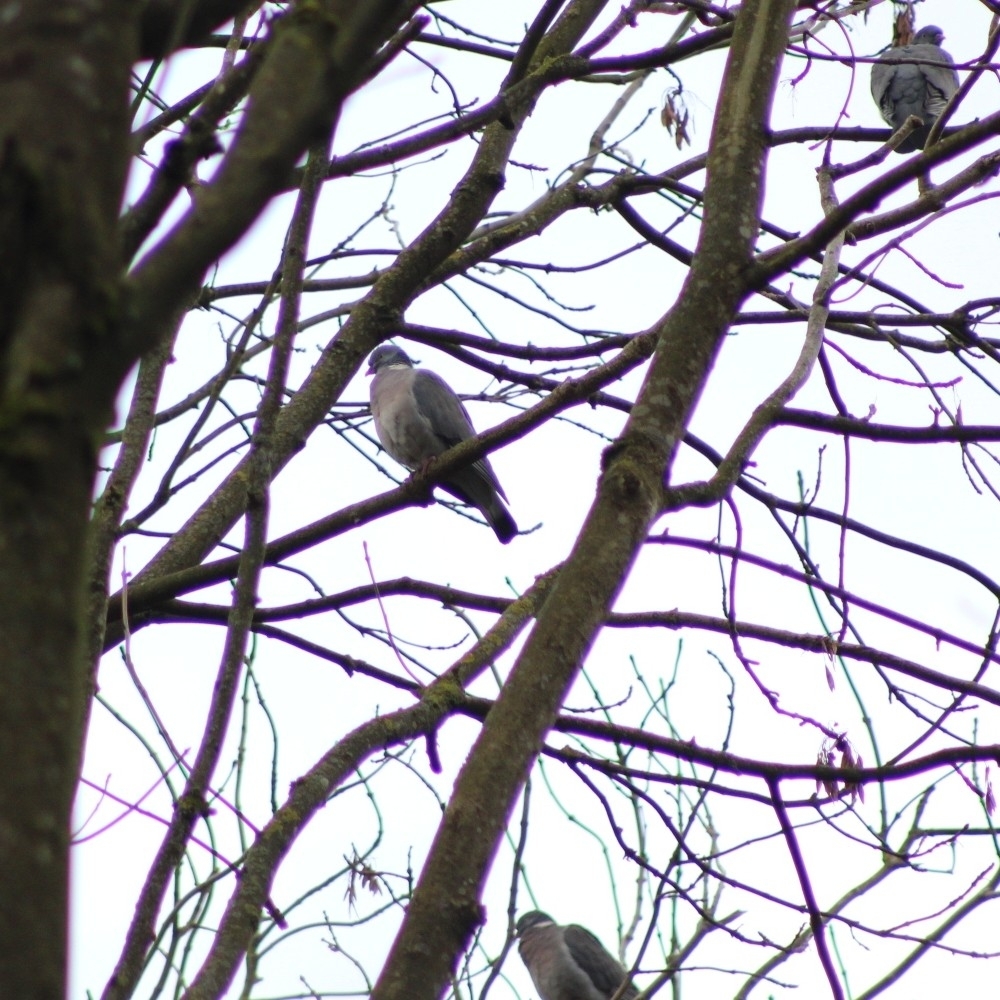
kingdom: Animalia
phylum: Chordata
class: Aves
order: Columbiformes
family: Columbidae
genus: Columba
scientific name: Columba palumbus
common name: Common wood pigeon
